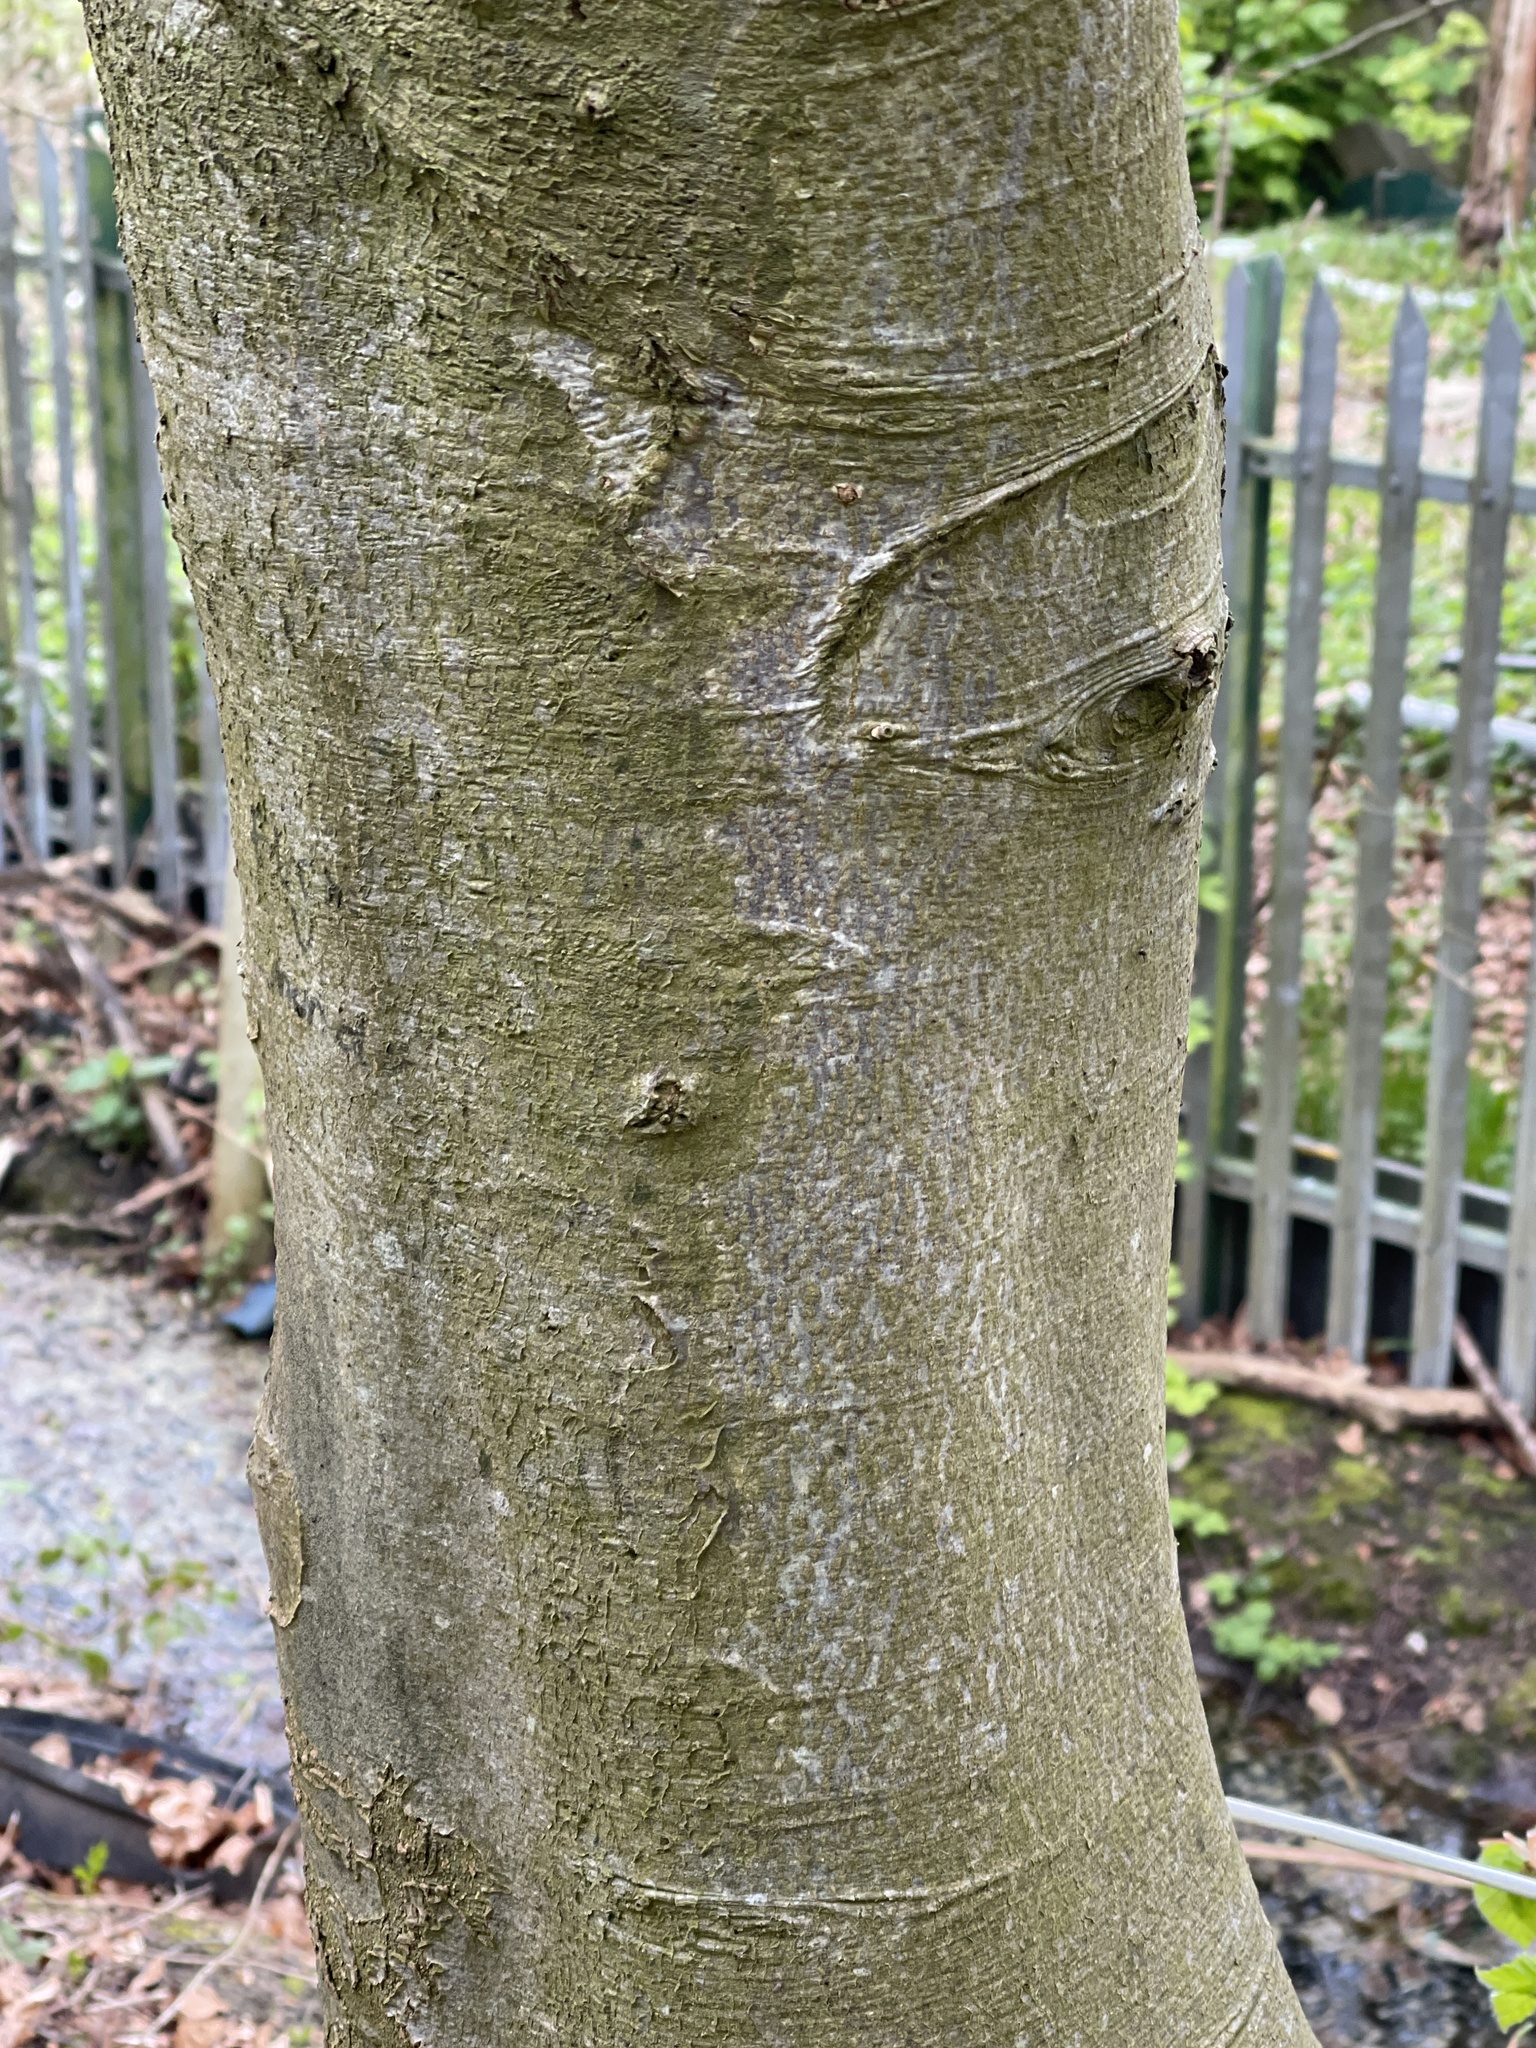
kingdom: Plantae
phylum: Tracheophyta
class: Magnoliopsida
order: Fagales
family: Fagaceae
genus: Fagus
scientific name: Fagus sylvatica
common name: Beech
